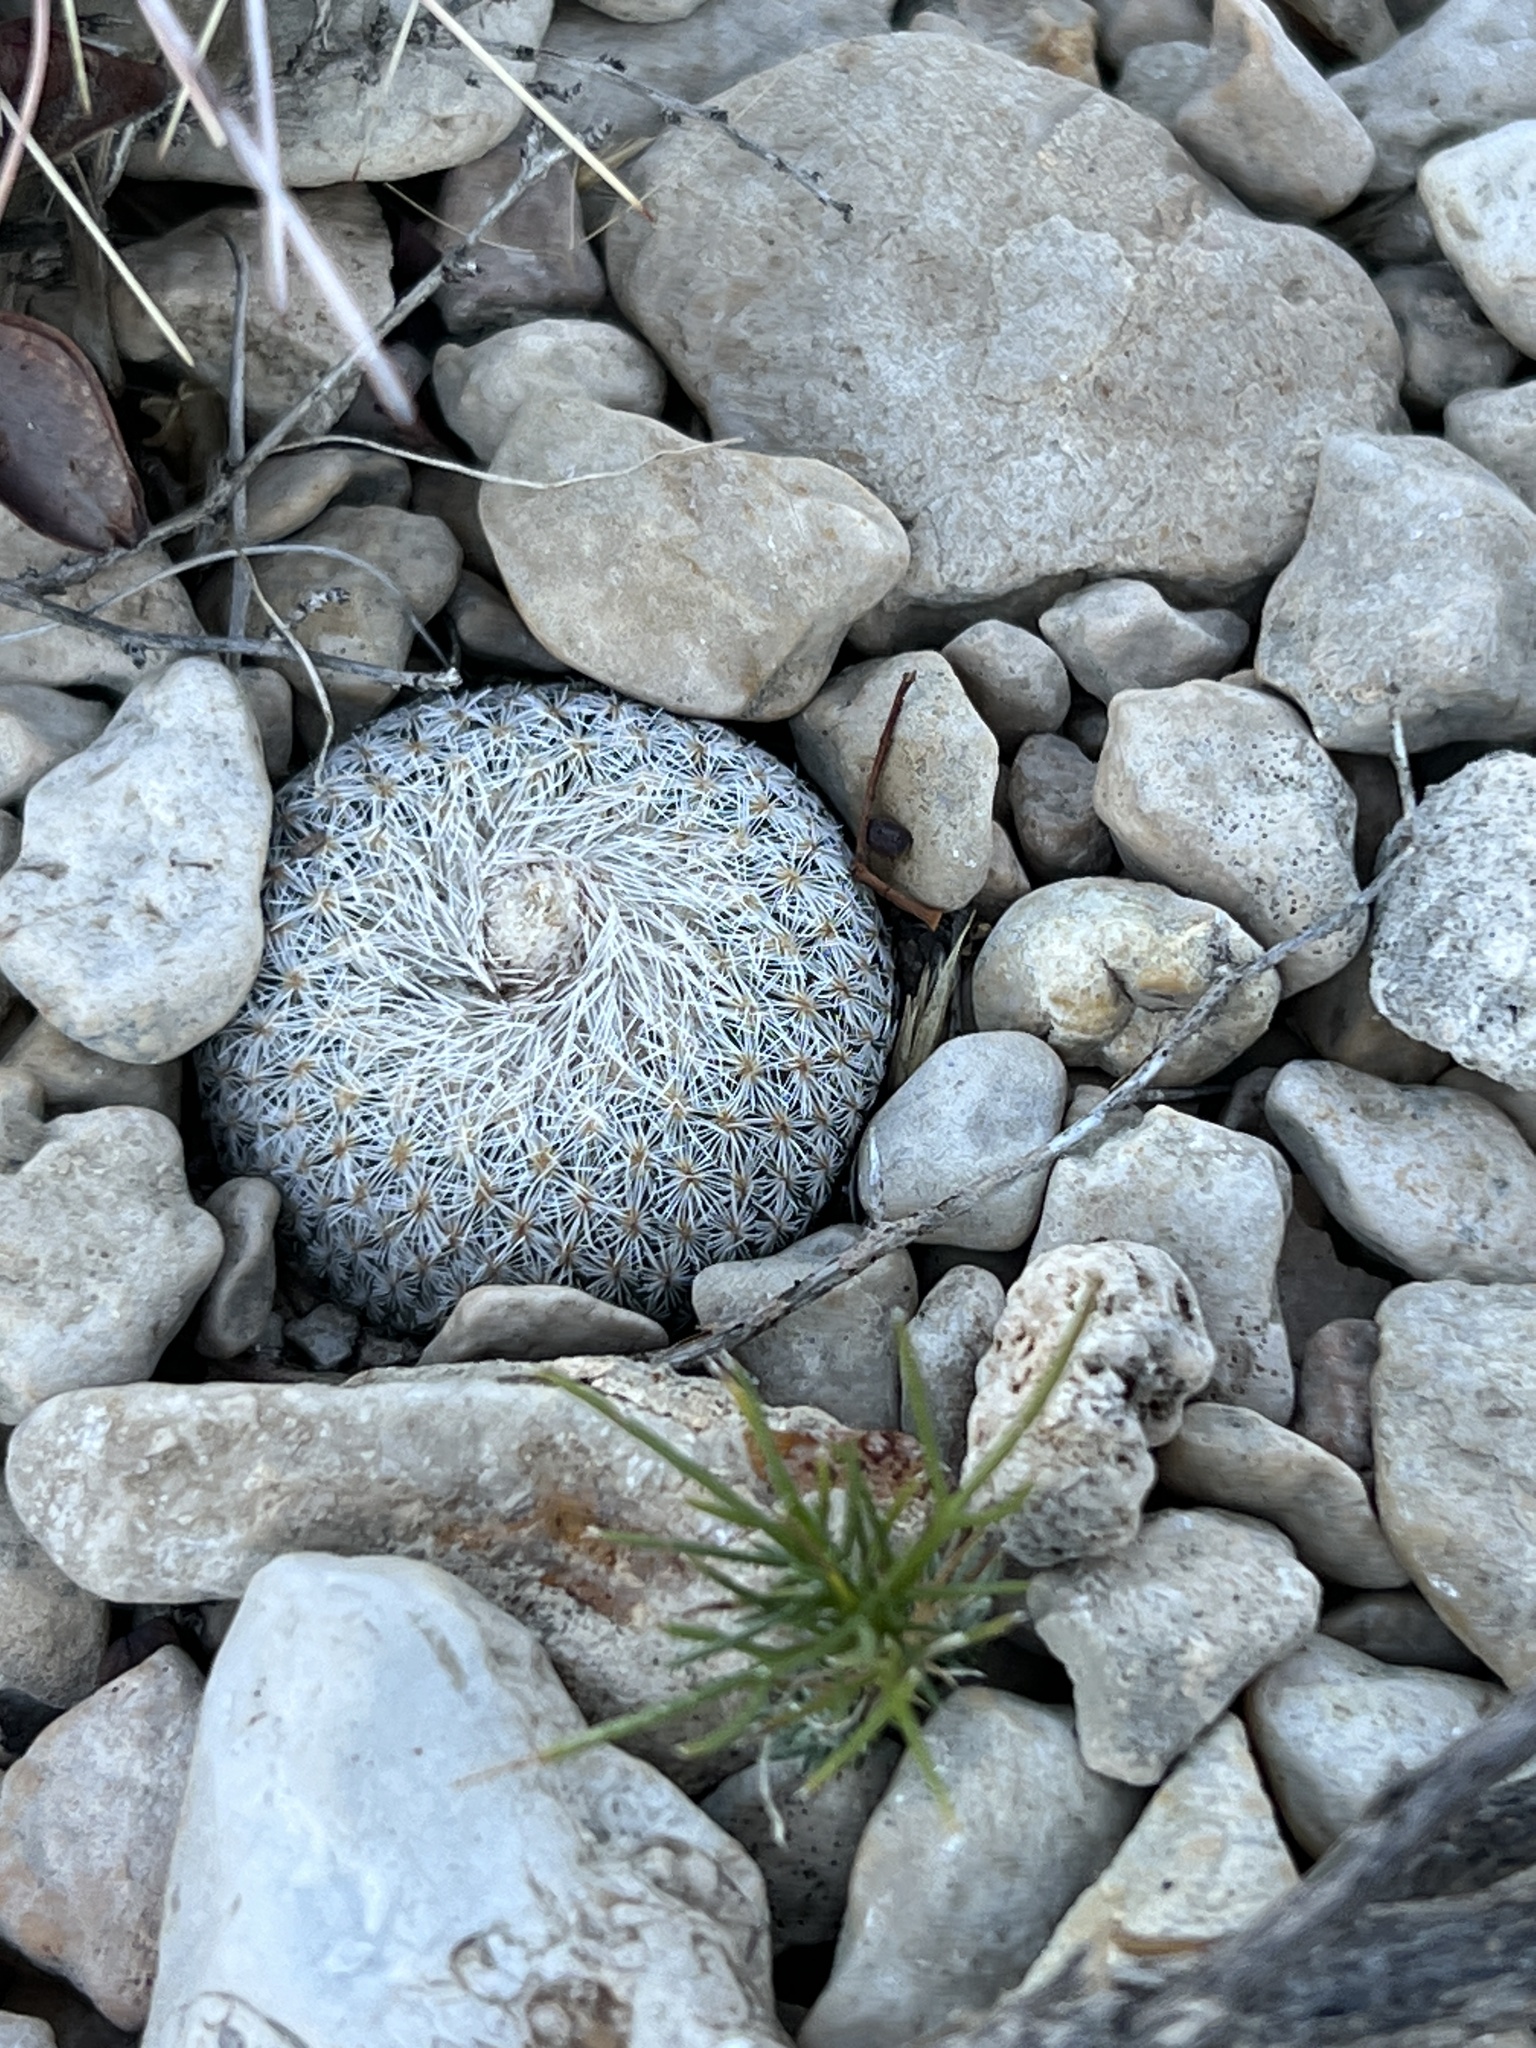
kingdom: Plantae
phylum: Tracheophyta
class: Magnoliopsida
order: Caryophyllales
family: Cactaceae
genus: Epithelantha
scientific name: Epithelantha micromeris
